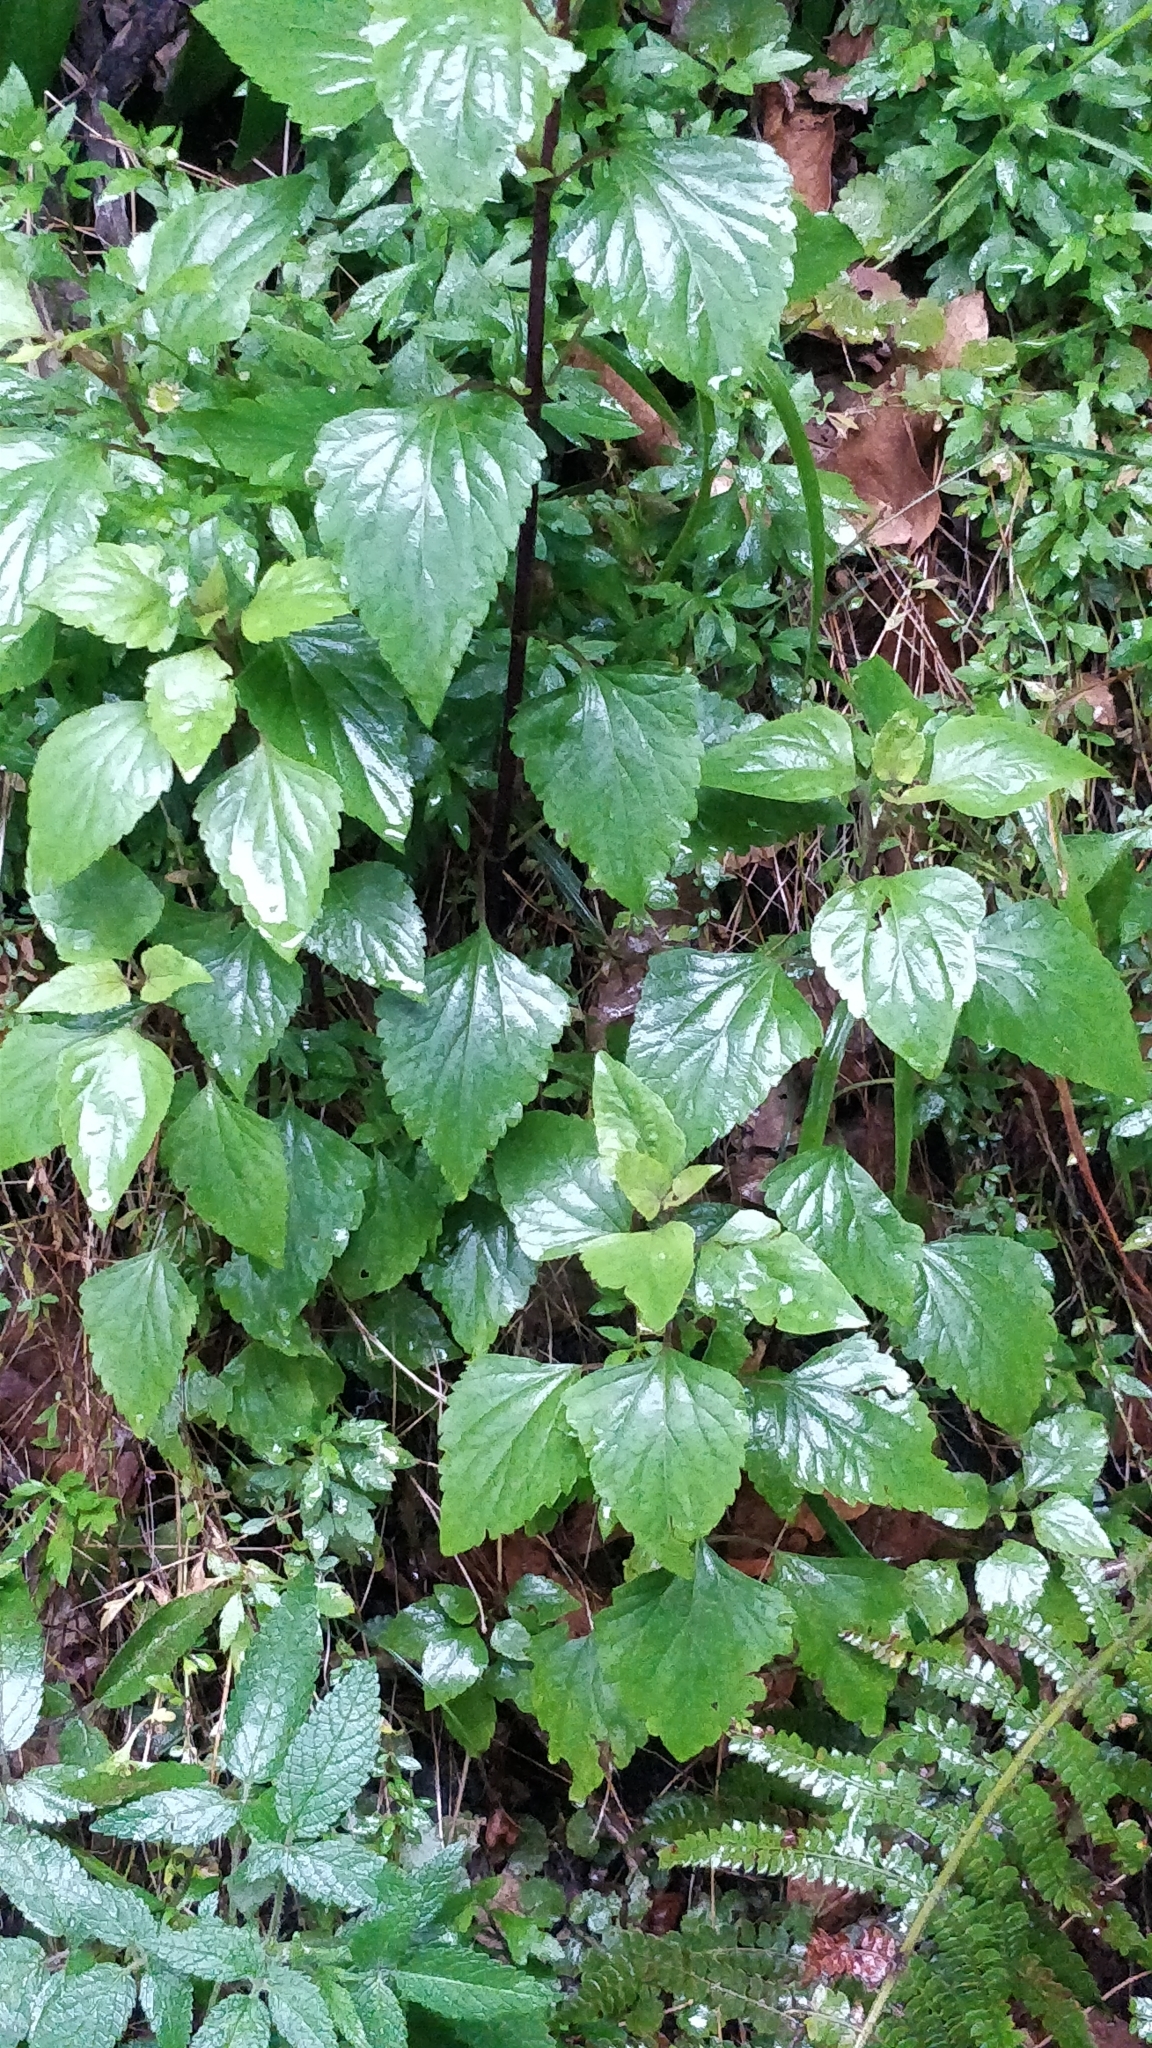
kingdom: Plantae
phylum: Tracheophyta
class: Magnoliopsida
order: Asterales
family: Asteraceae
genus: Ageratina
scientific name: Ageratina adenophora
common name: Sticky snakeroot
